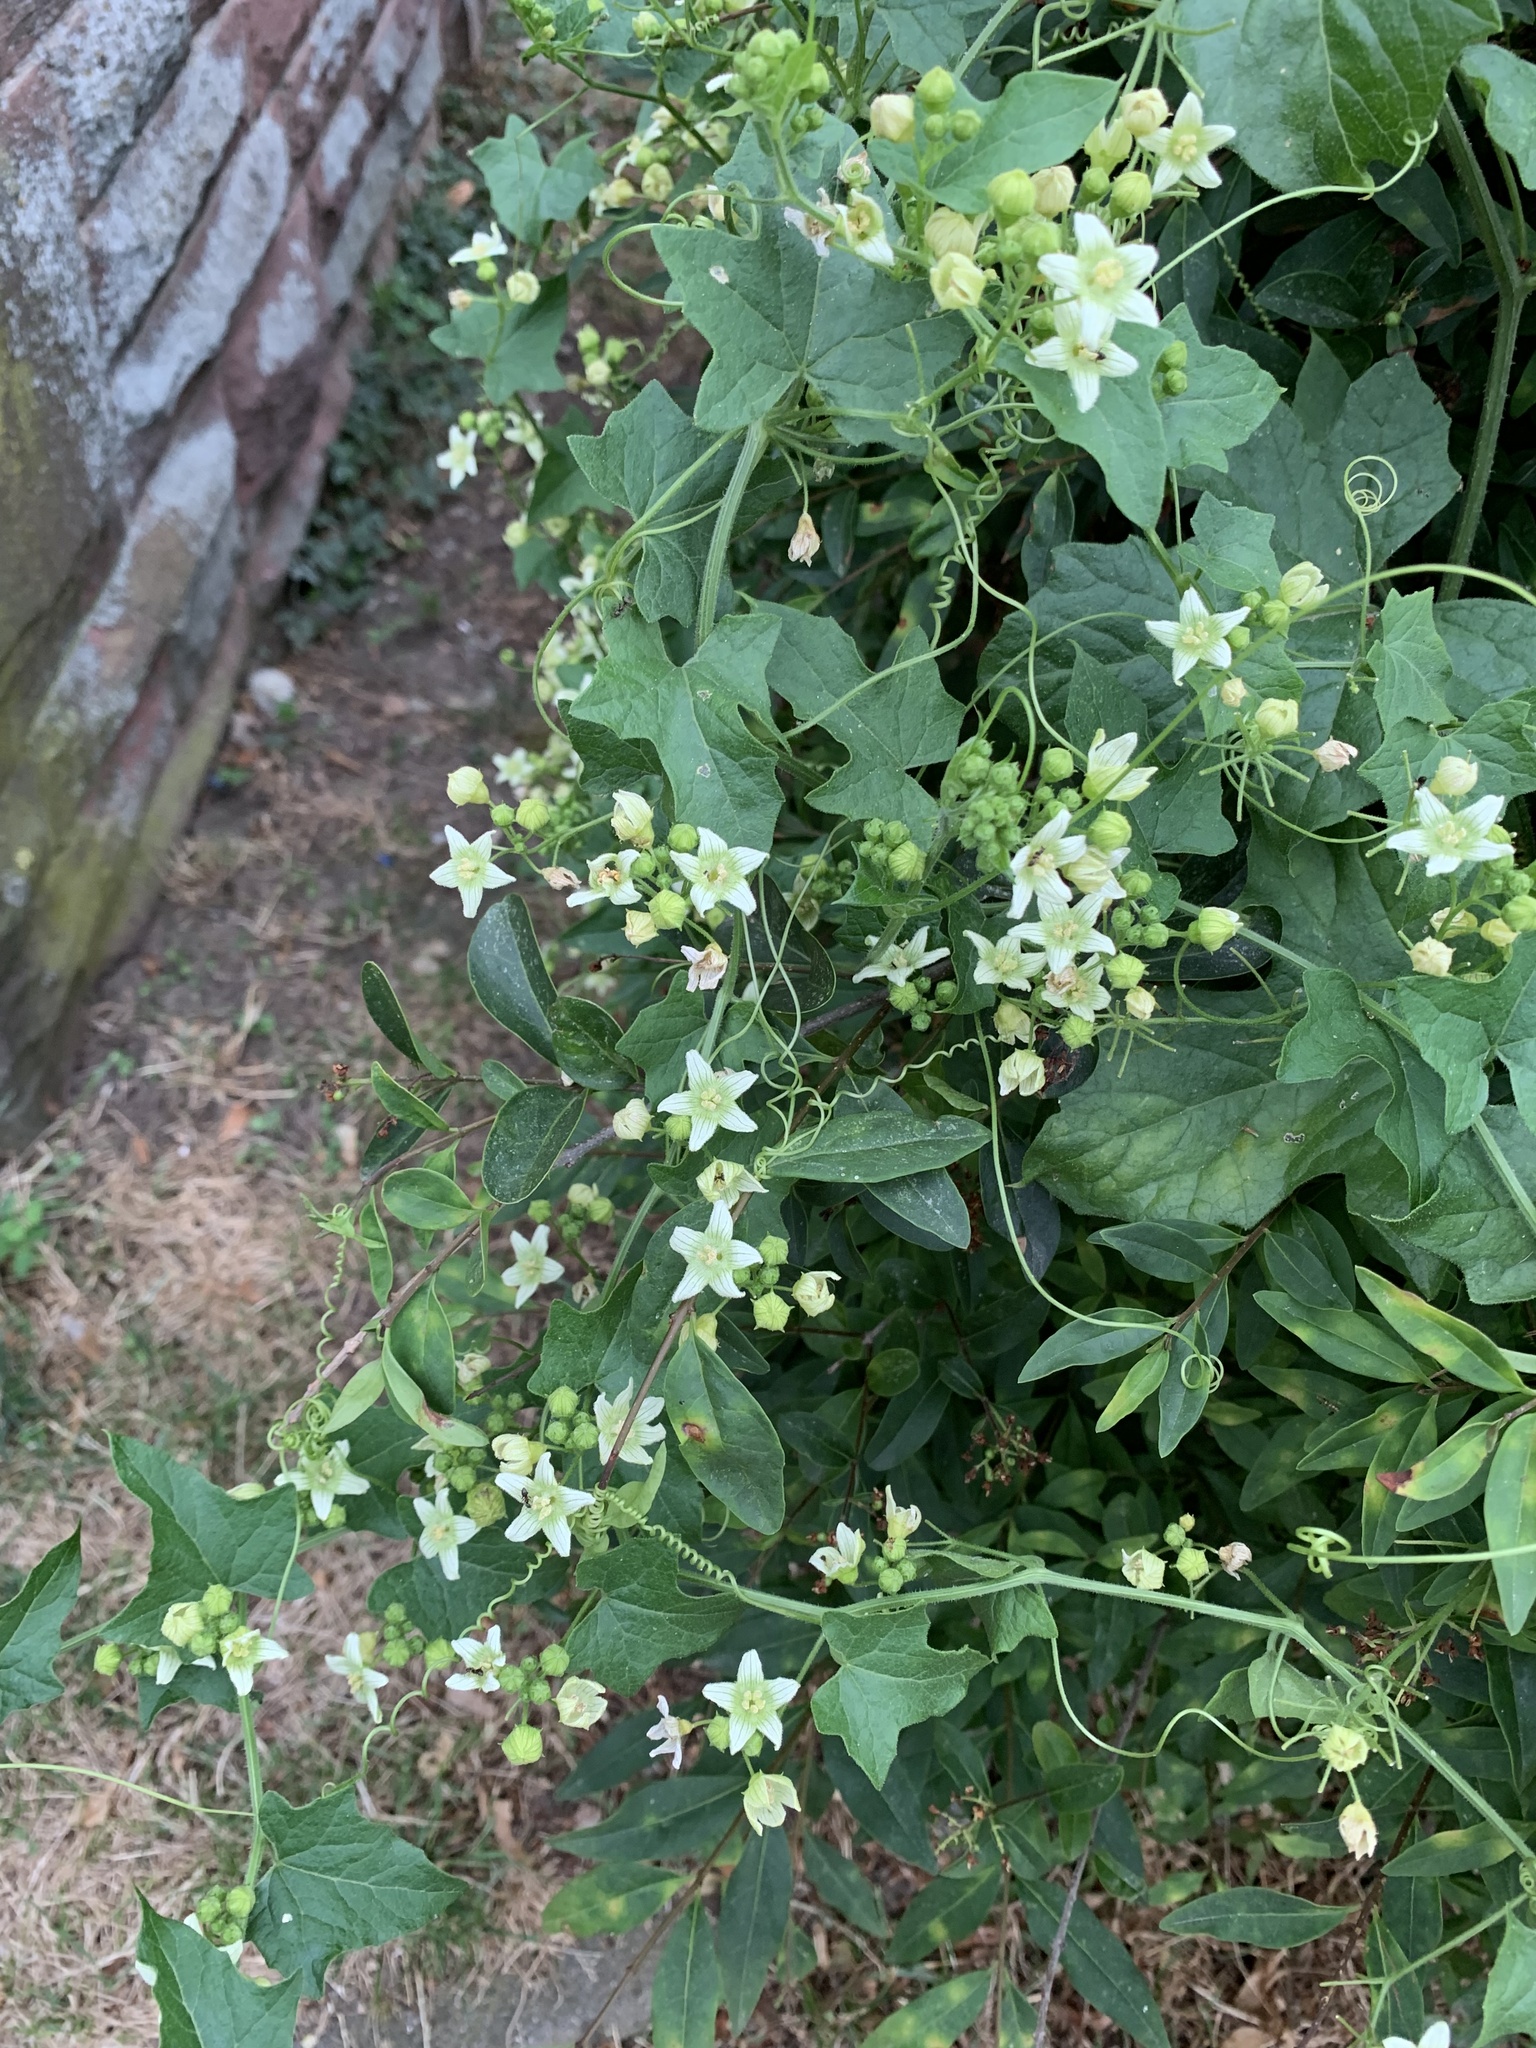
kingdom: Plantae
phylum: Tracheophyta
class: Magnoliopsida
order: Cucurbitales
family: Cucurbitaceae
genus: Bryonia
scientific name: Bryonia cretica
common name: Cretan bryony
